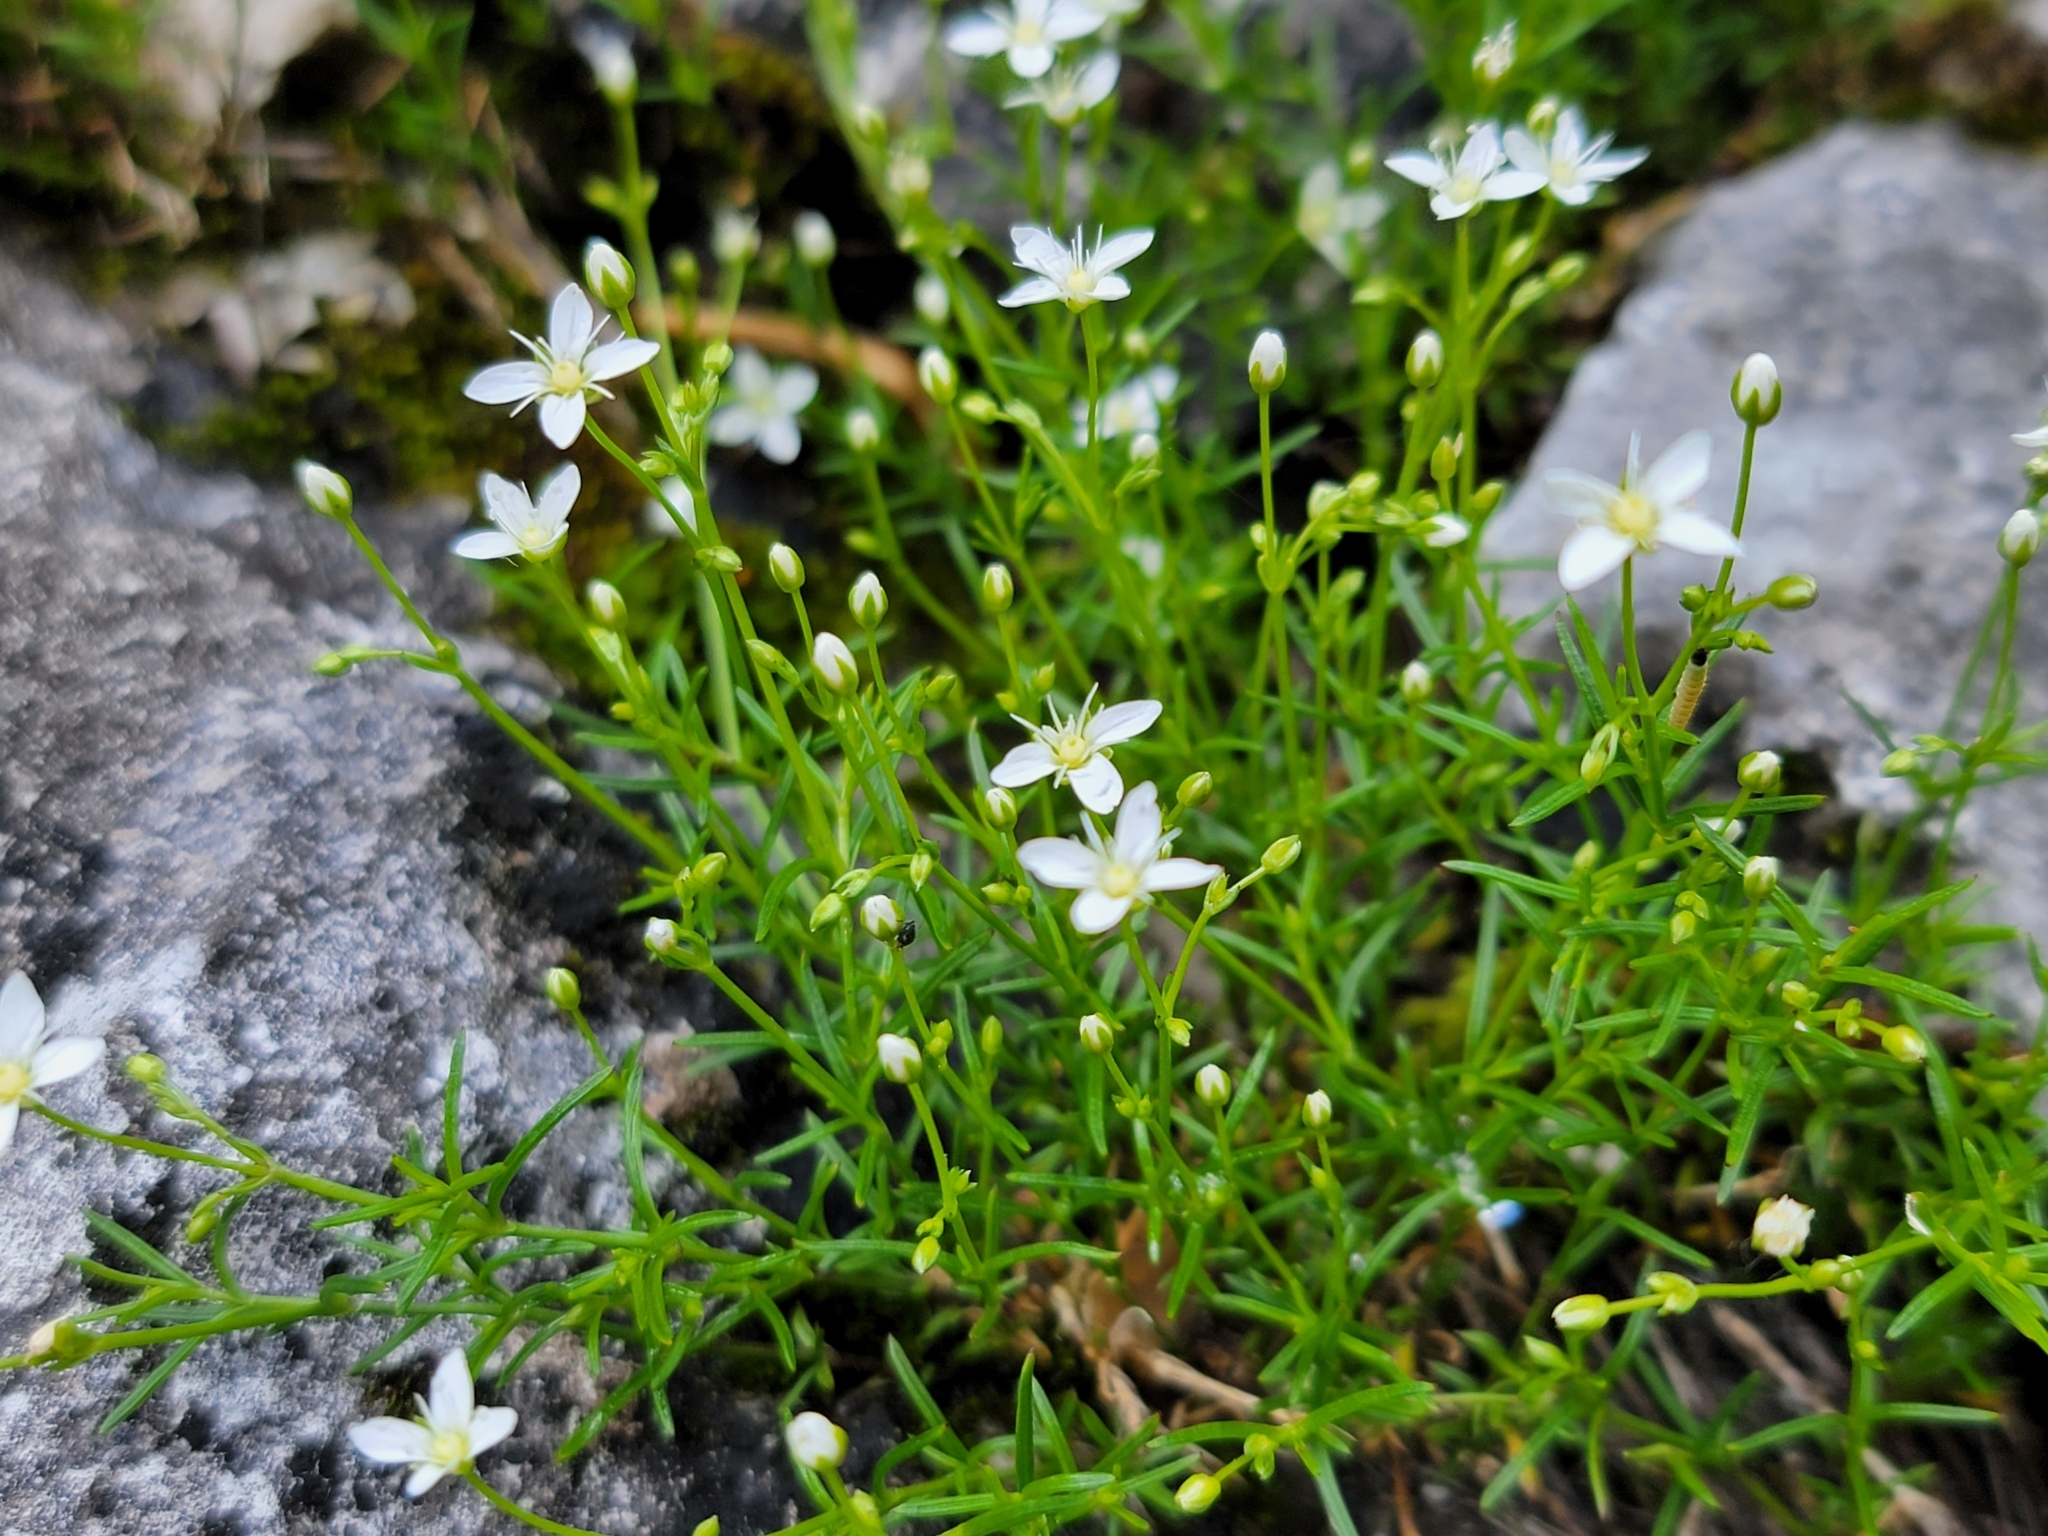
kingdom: Plantae
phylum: Tracheophyta
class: Magnoliopsida
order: Caryophyllales
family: Caryophyllaceae
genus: Moehringia
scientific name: Moehringia muscosa
